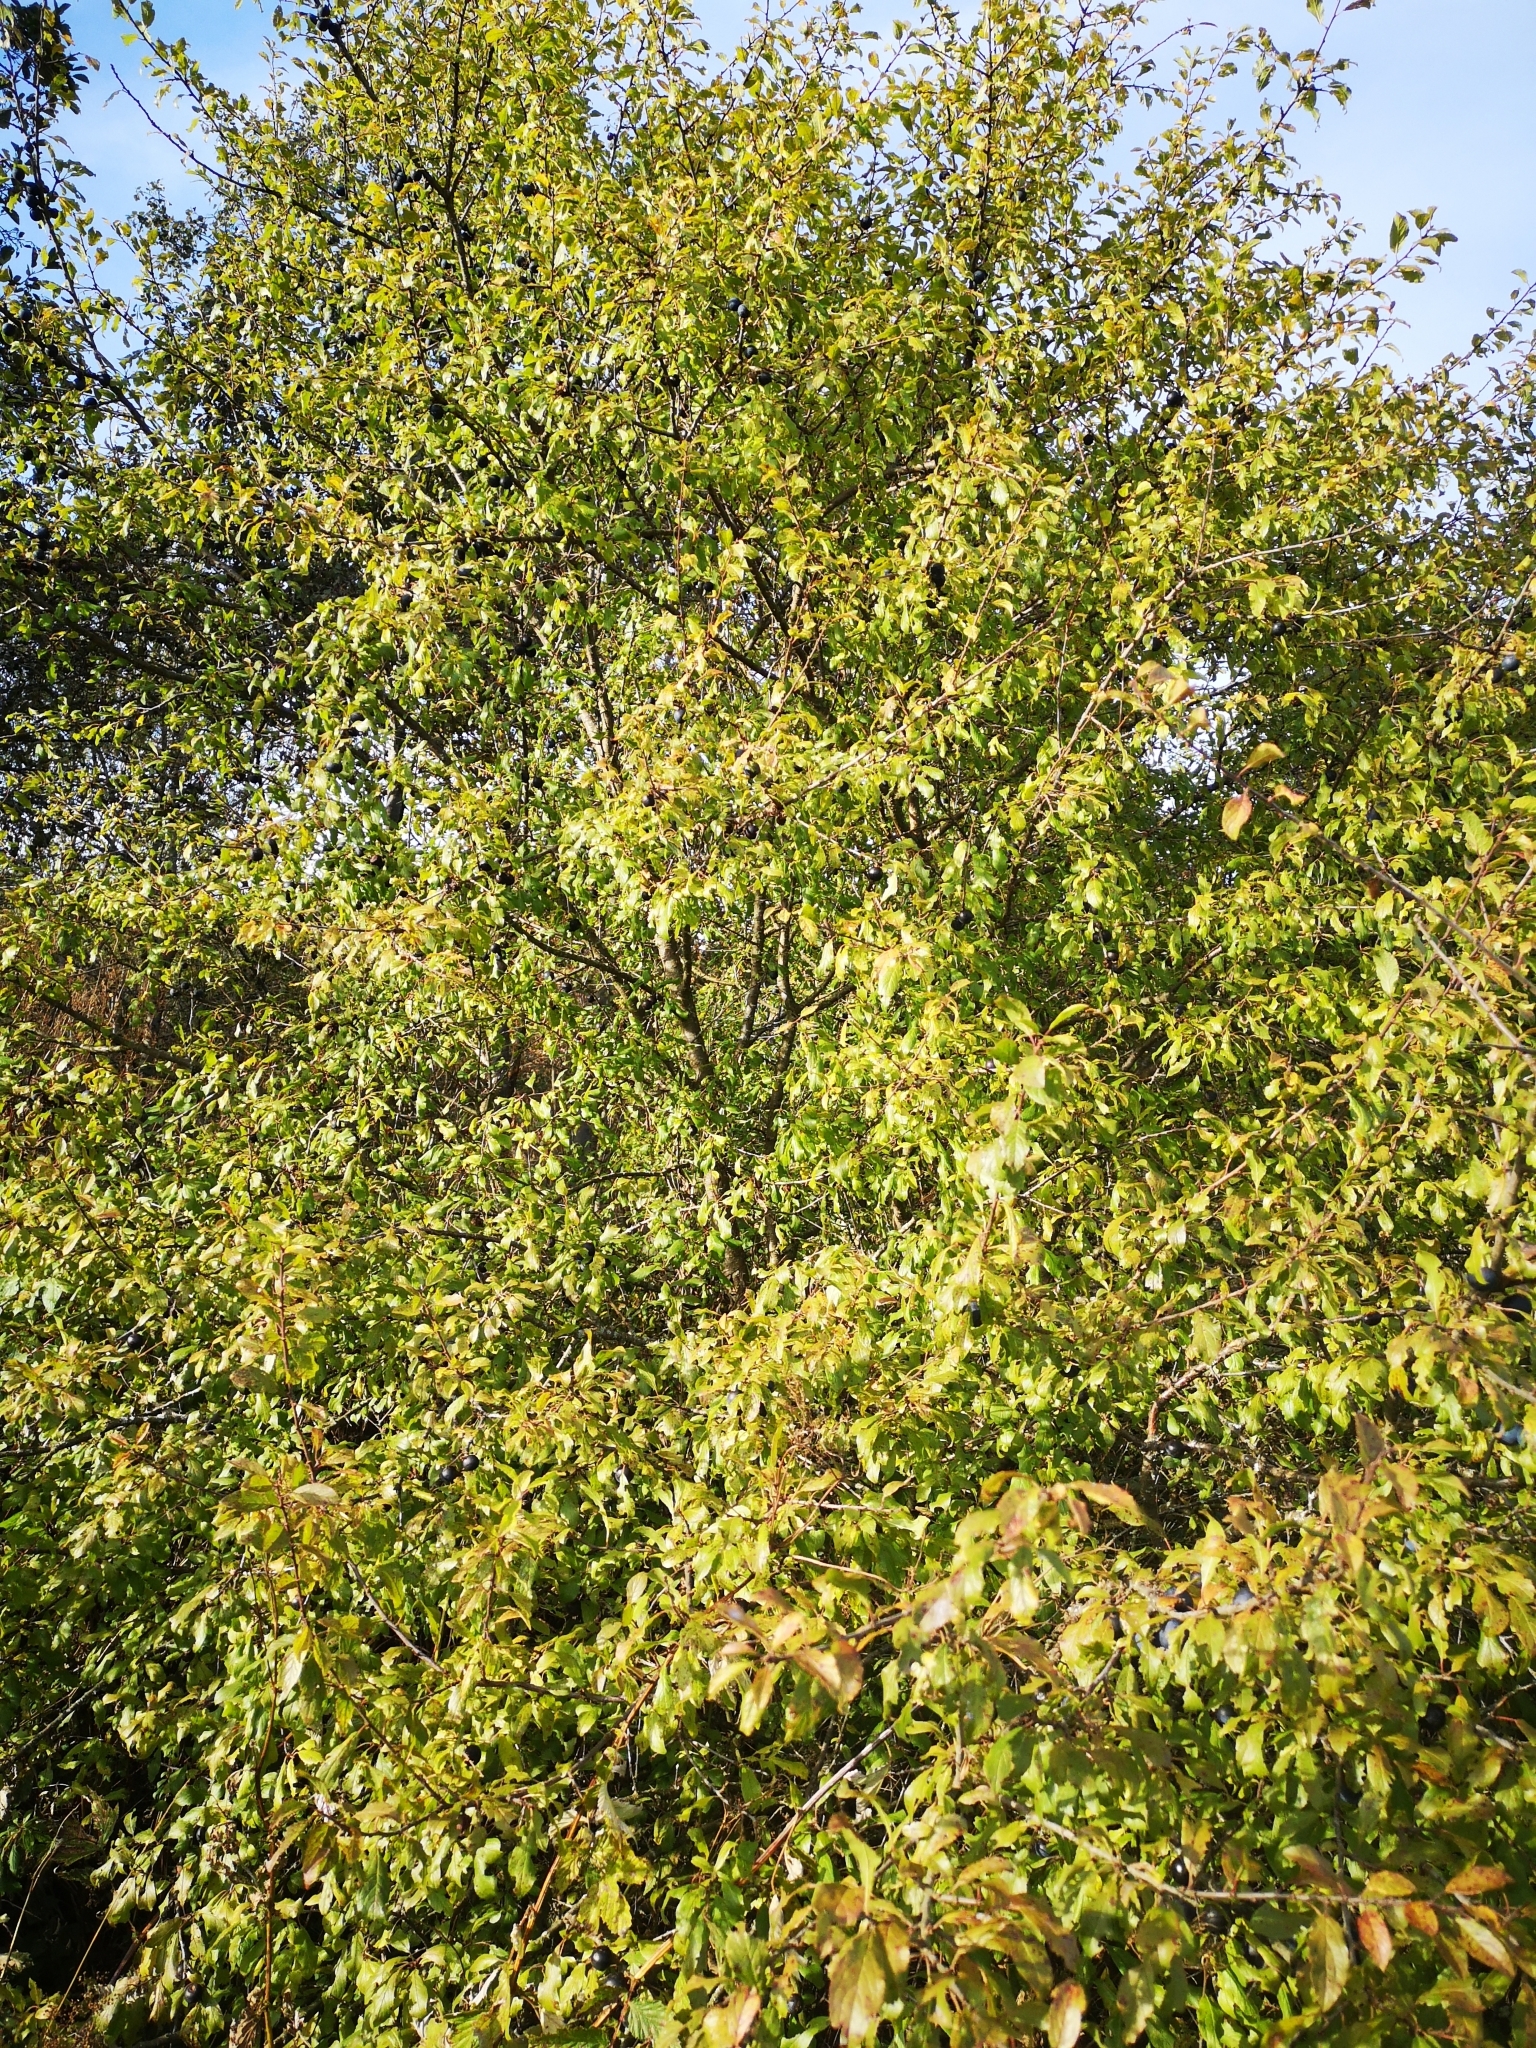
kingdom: Plantae
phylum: Tracheophyta
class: Magnoliopsida
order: Rosales
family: Rosaceae
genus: Prunus
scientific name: Prunus spinosa
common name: Blackthorn
